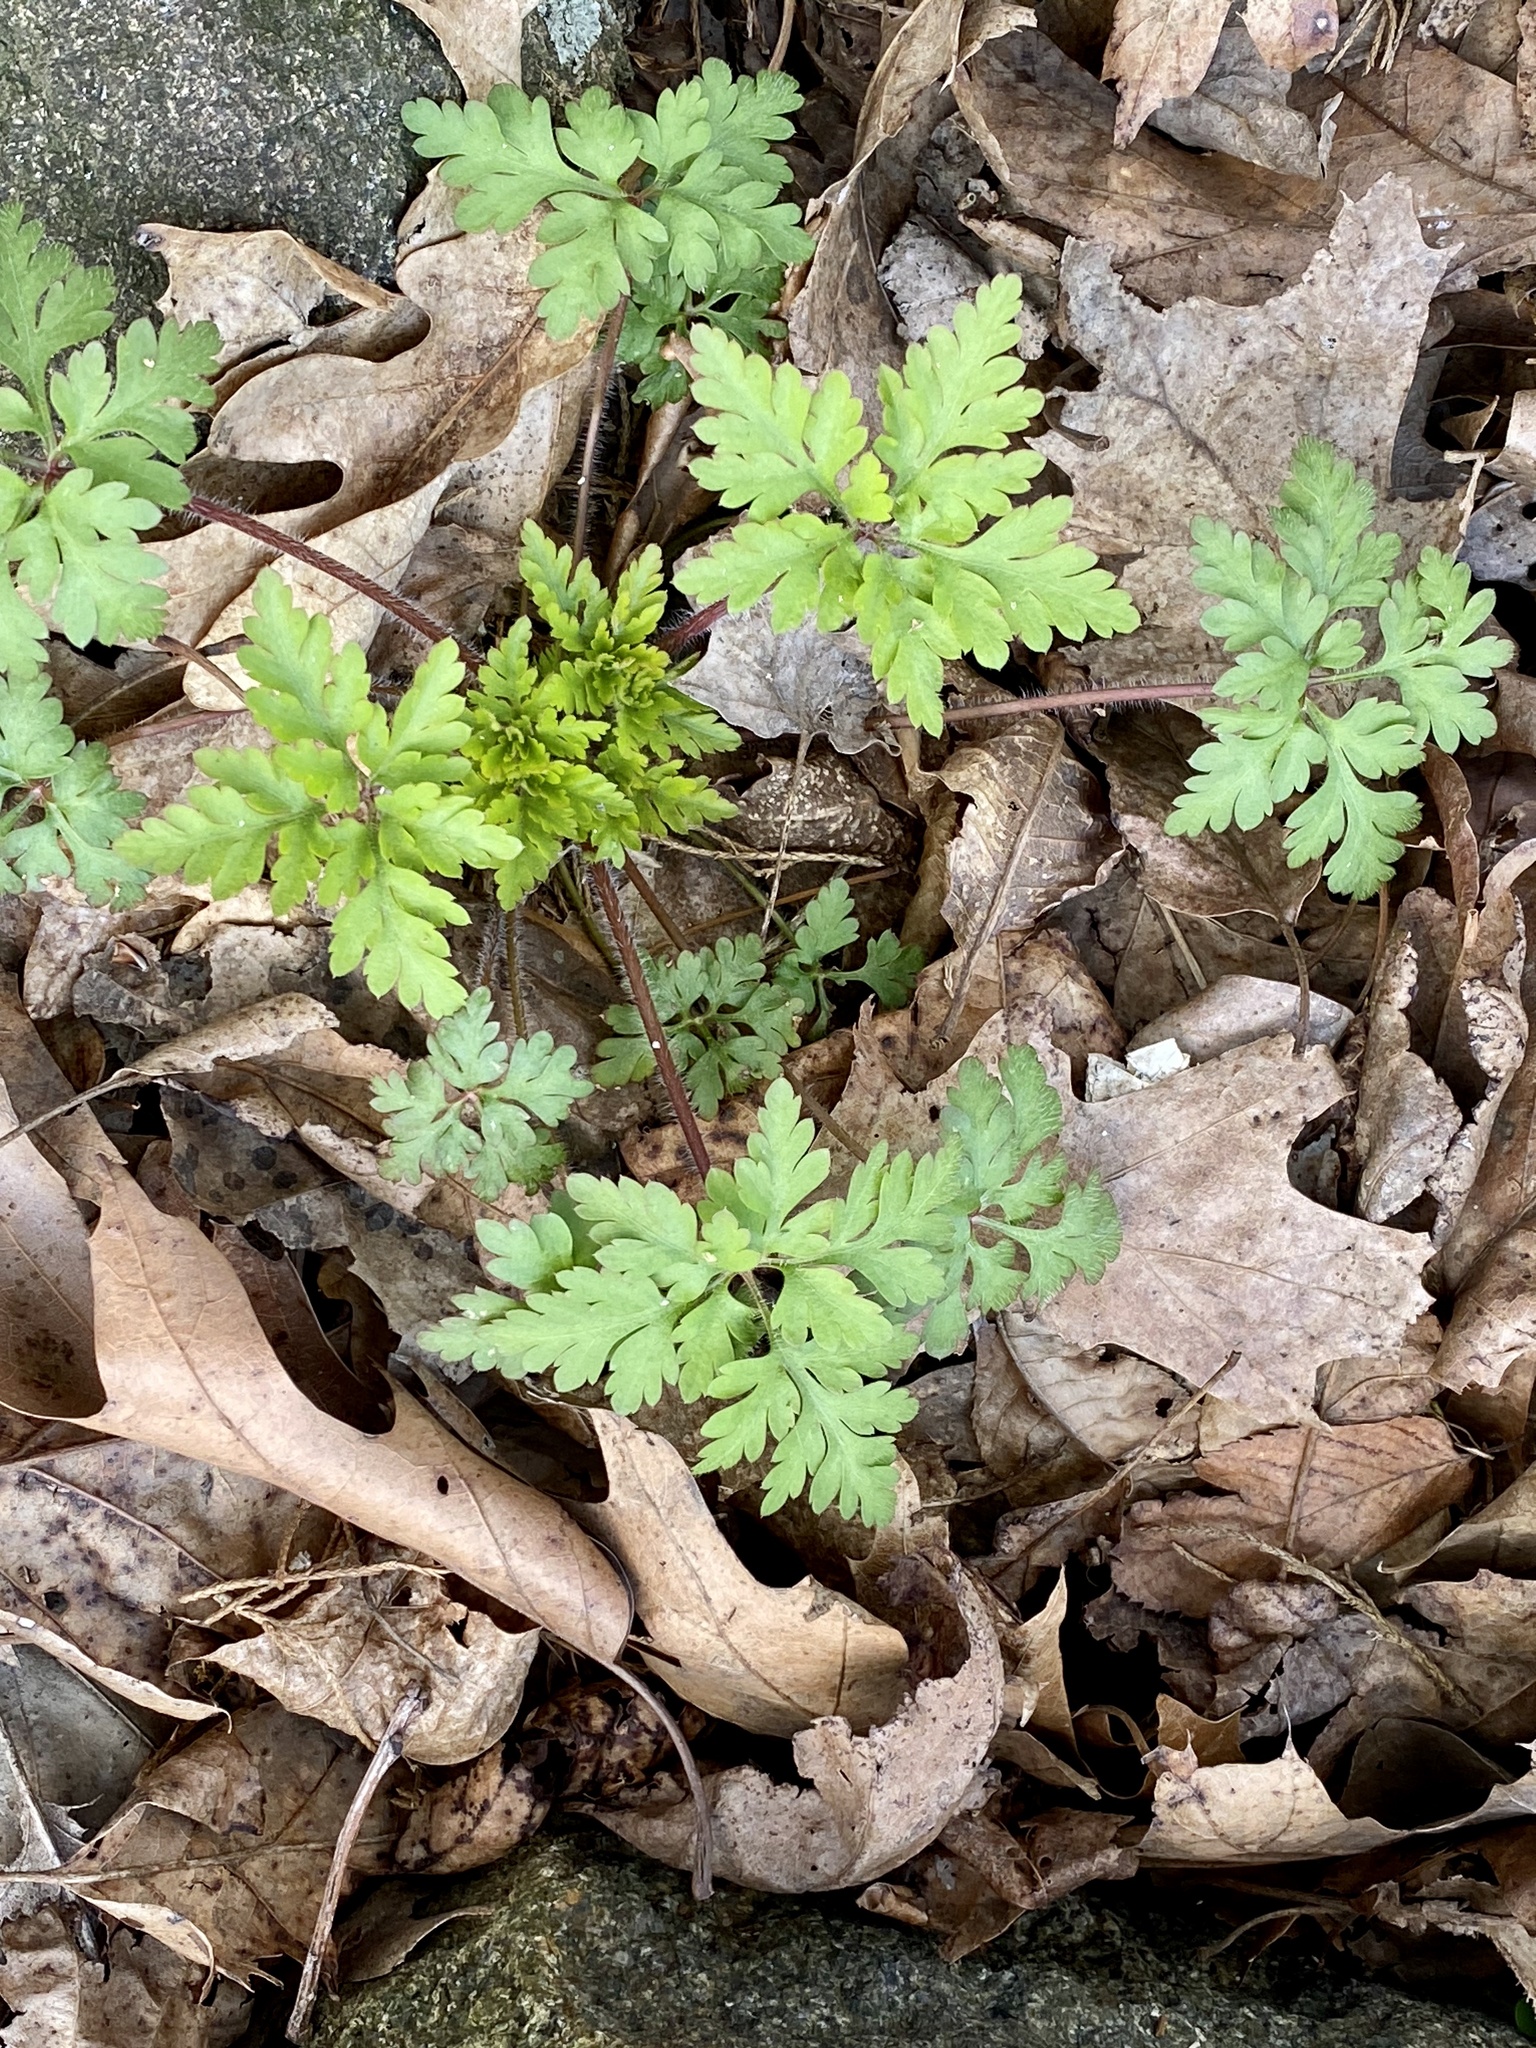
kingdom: Plantae
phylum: Tracheophyta
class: Magnoliopsida
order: Geraniales
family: Geraniaceae
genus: Geranium
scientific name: Geranium robertianum
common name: Herb-robert
